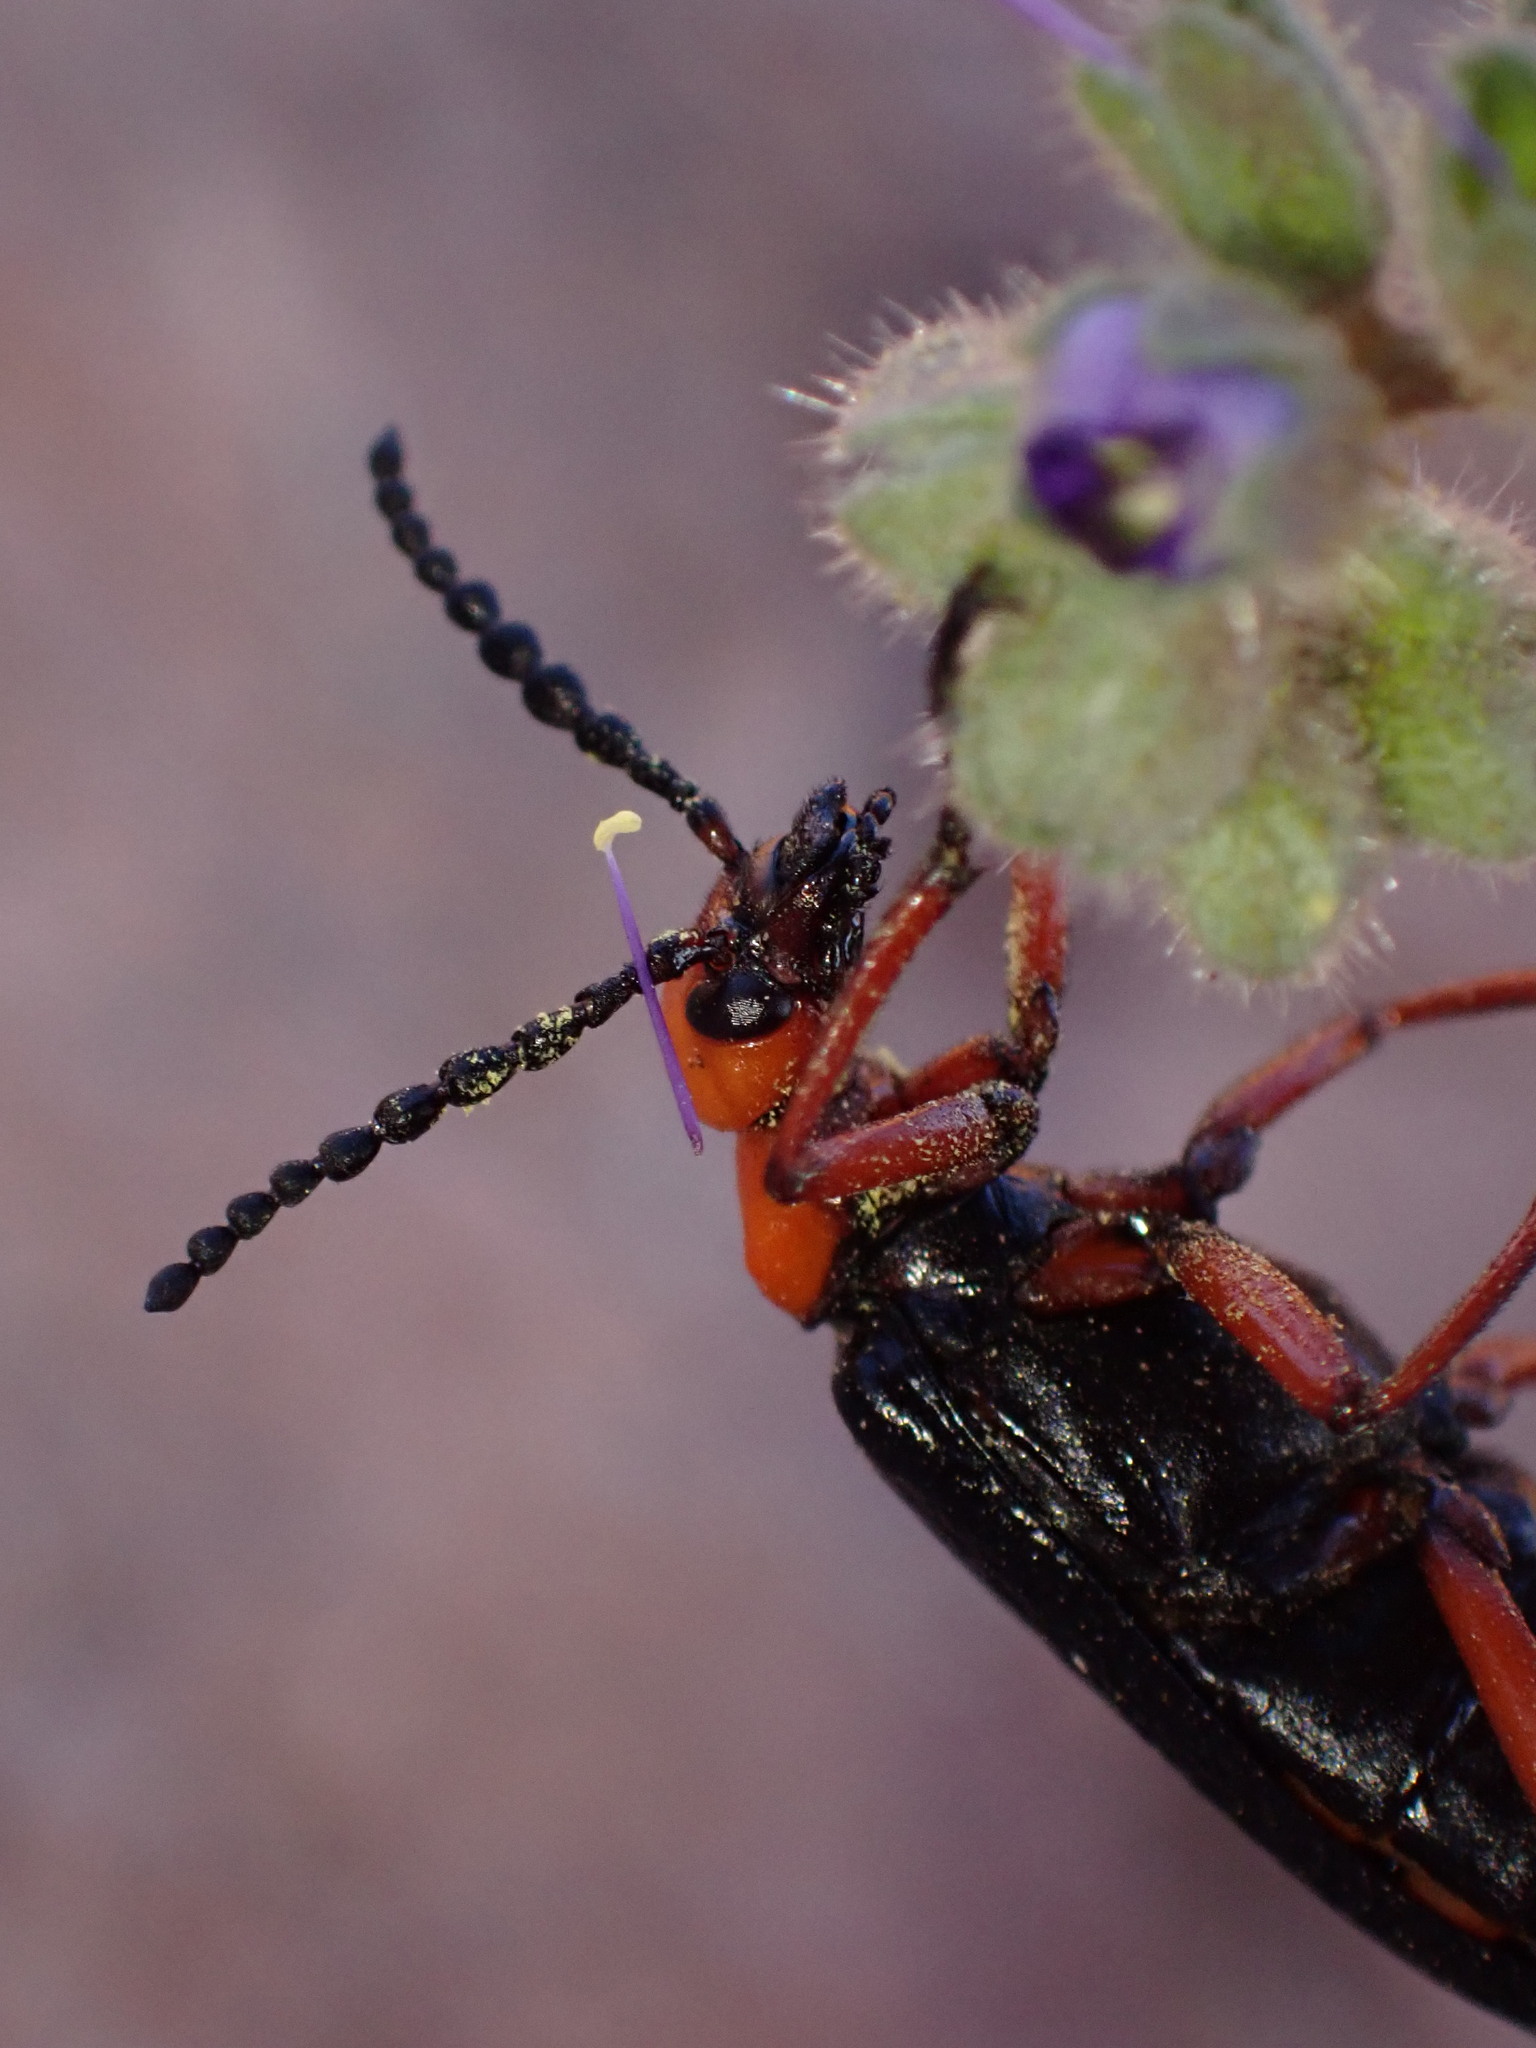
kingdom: Animalia
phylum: Arthropoda
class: Insecta
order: Coleoptera
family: Meloidae
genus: Lytta
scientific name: Lytta magister
